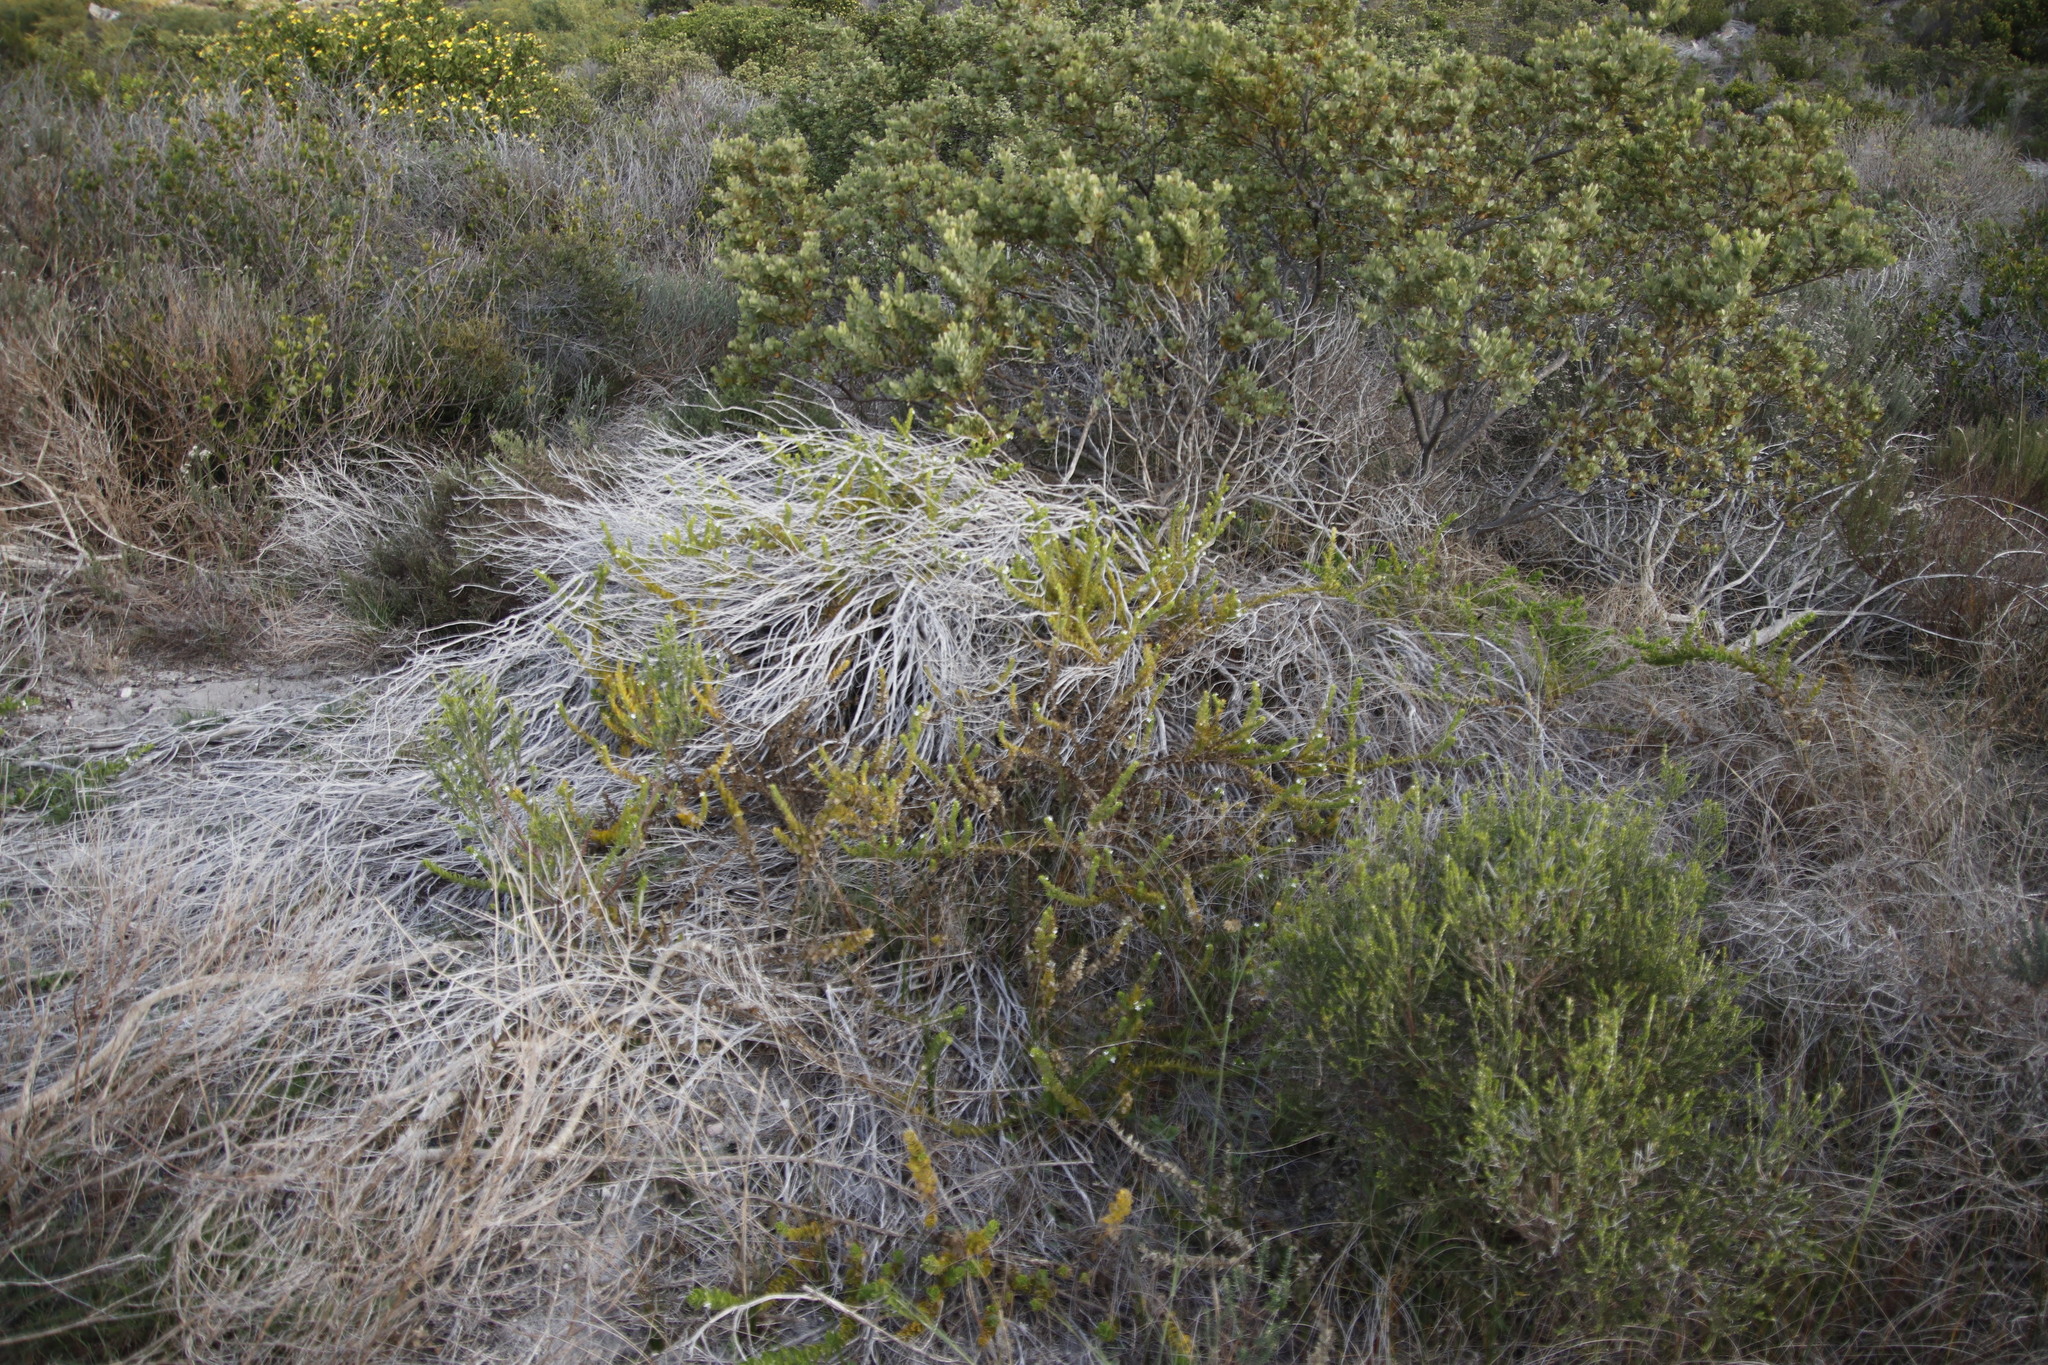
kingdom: Plantae
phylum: Tracheophyta
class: Magnoliopsida
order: Lamiales
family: Scrophulariaceae
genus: Oftia
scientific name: Oftia africana
